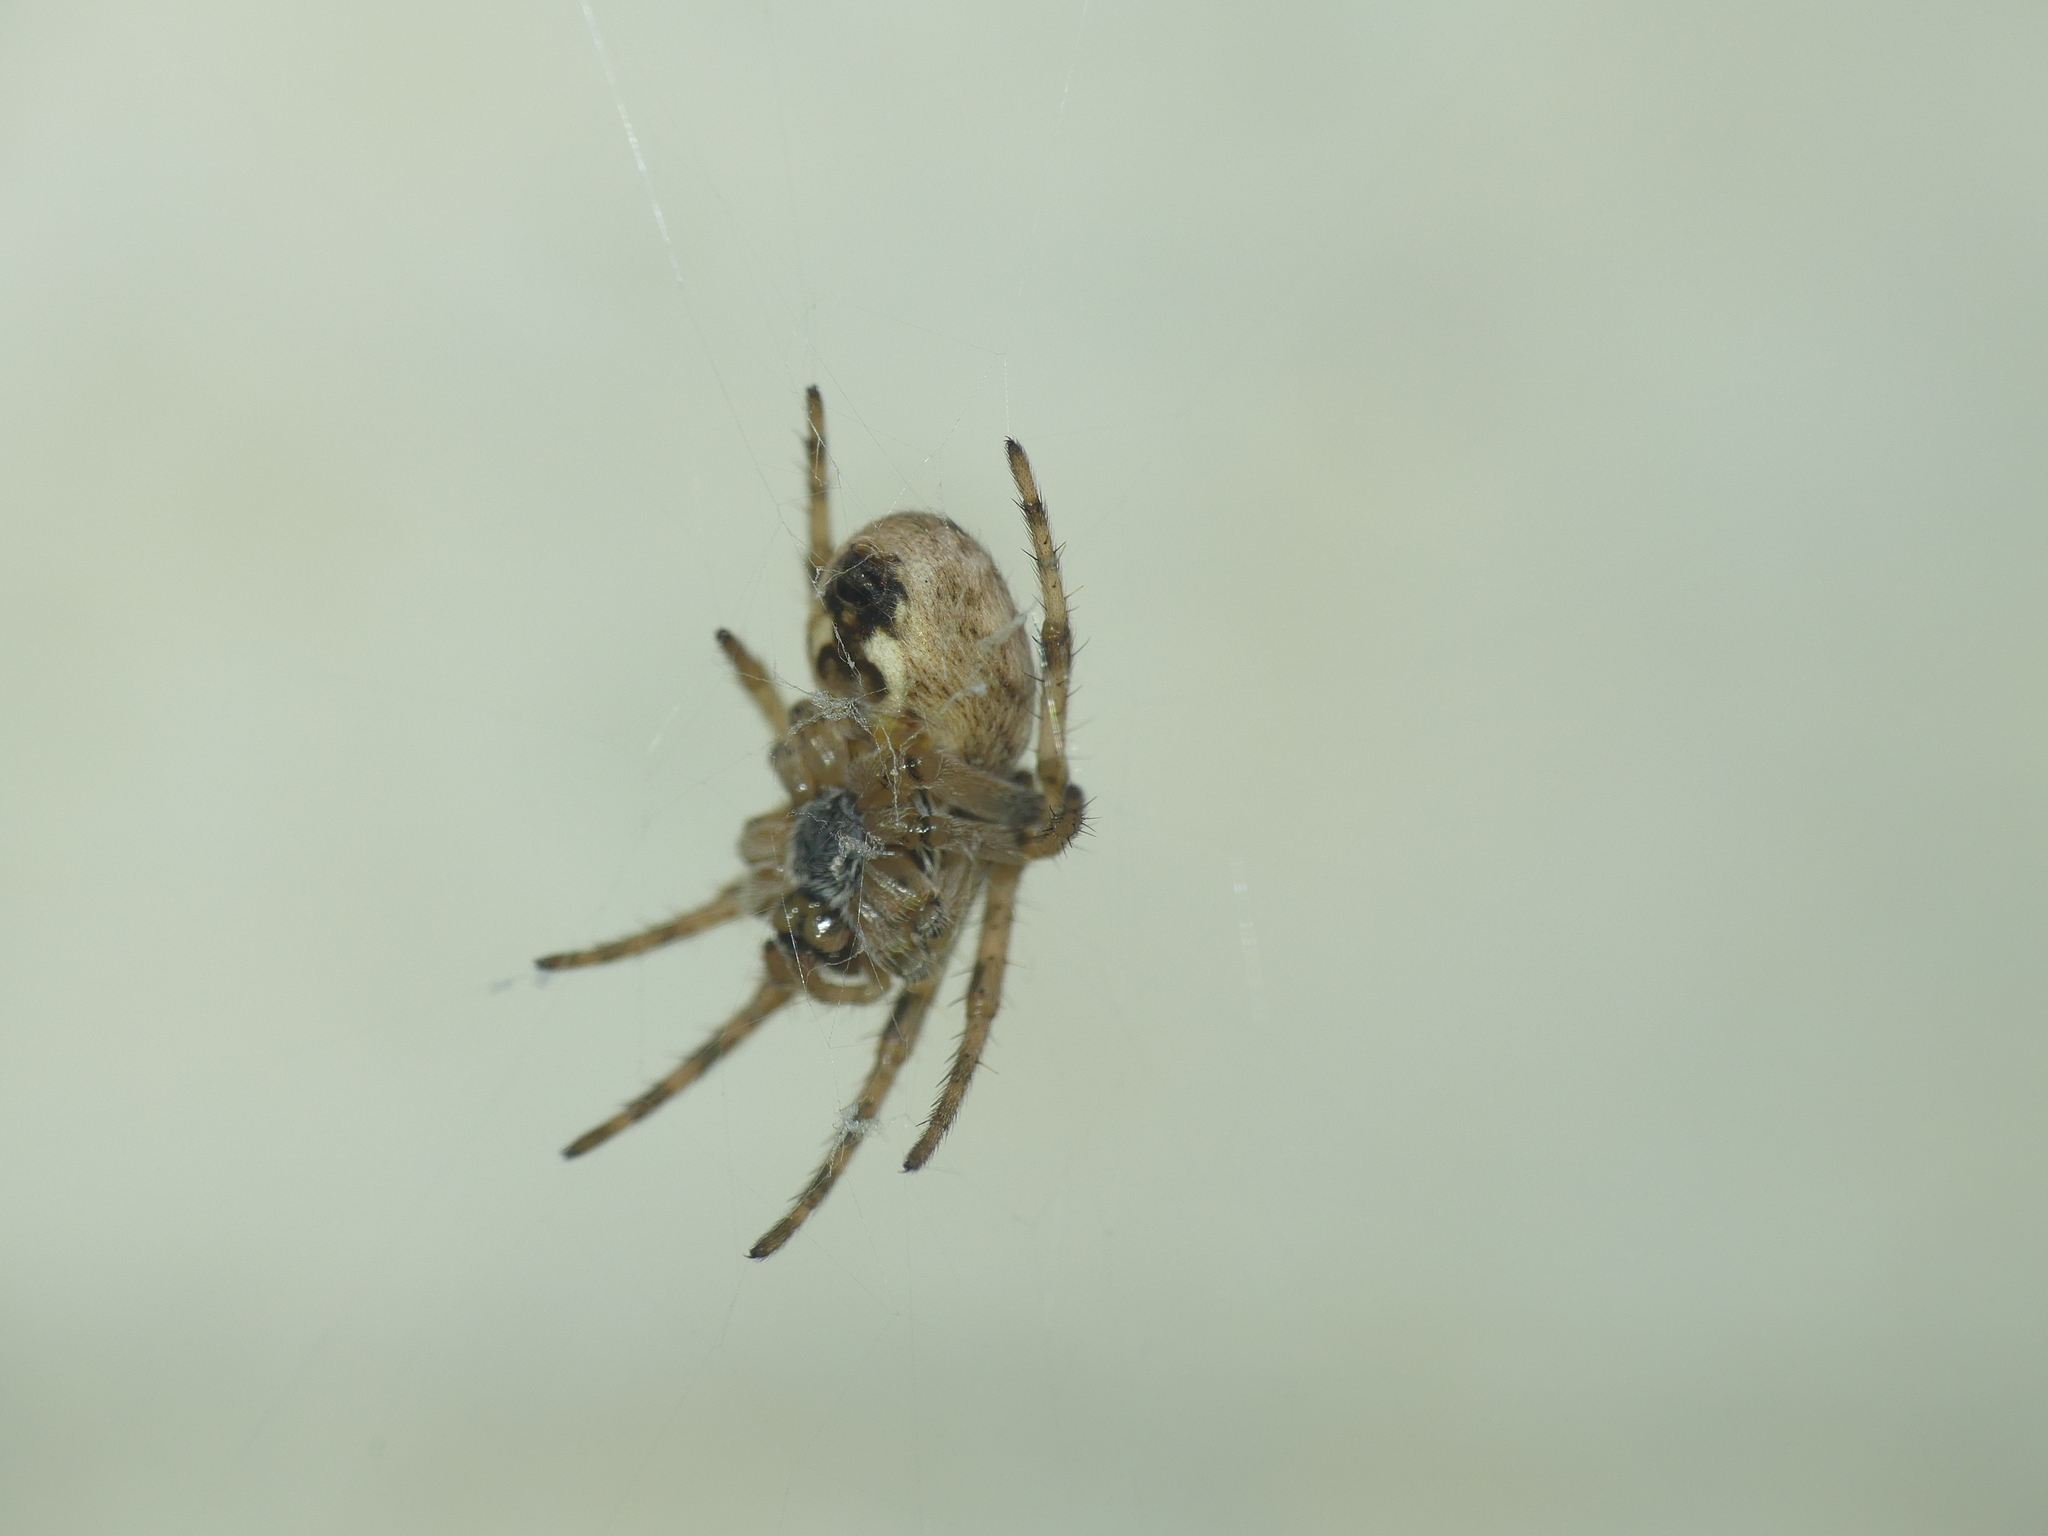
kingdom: Animalia
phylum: Arthropoda
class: Arachnida
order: Araneae
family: Araneidae
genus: Larinioides
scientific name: Larinioides sclopetarius
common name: Bridge orbweaver
